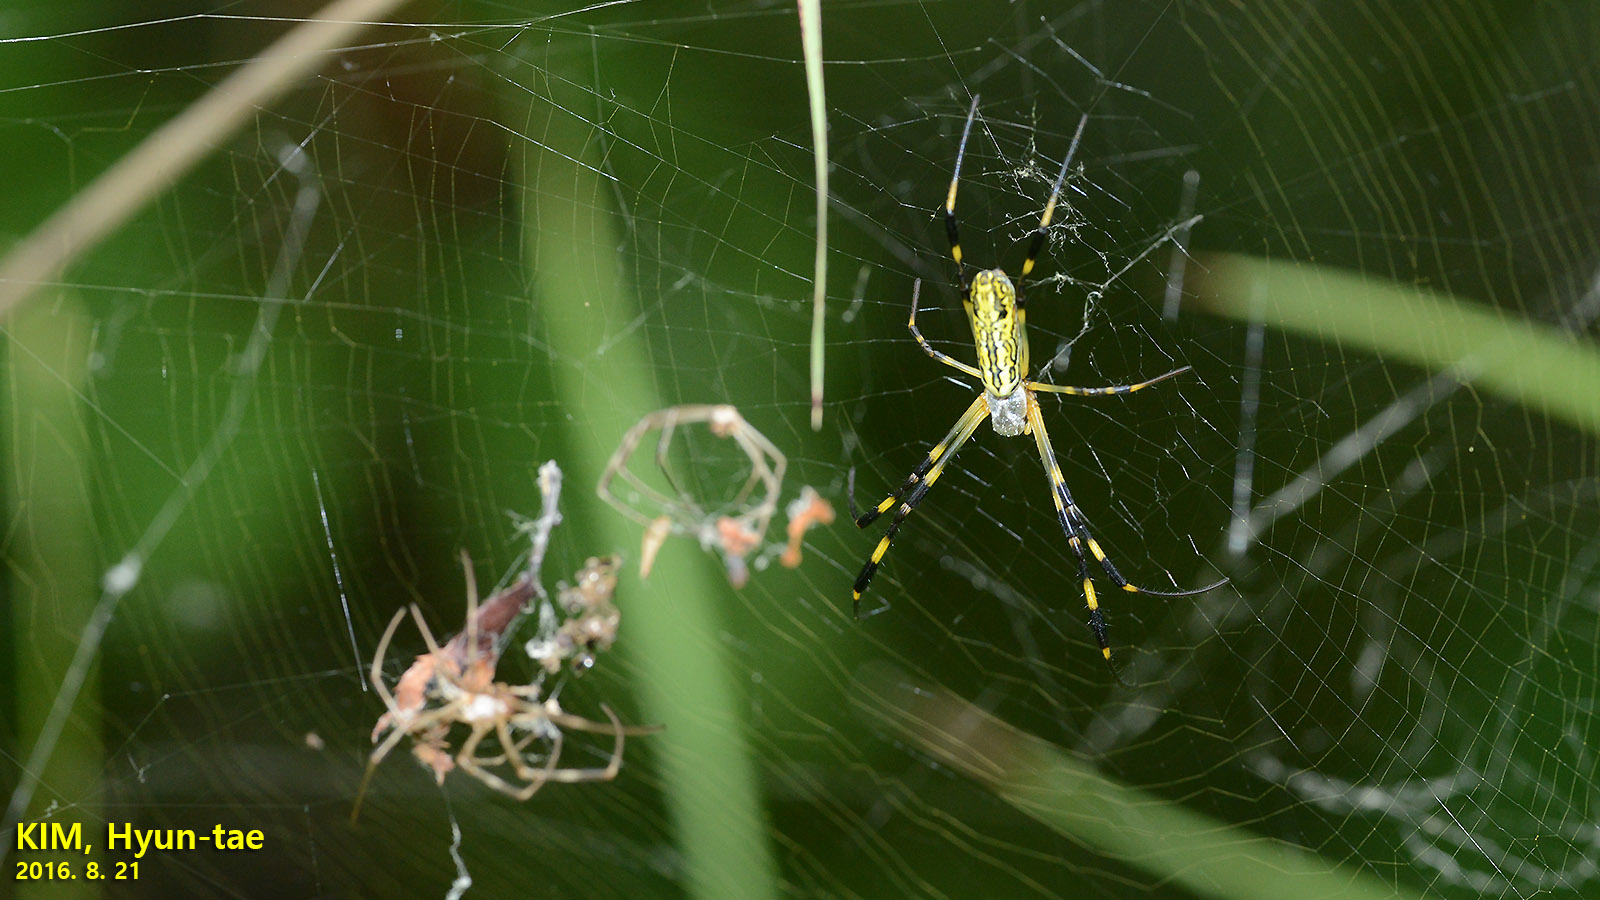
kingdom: Animalia
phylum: Arthropoda
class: Arachnida
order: Araneae
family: Araneidae
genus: Trichonephila
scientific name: Trichonephila clavata
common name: Jorō spider
